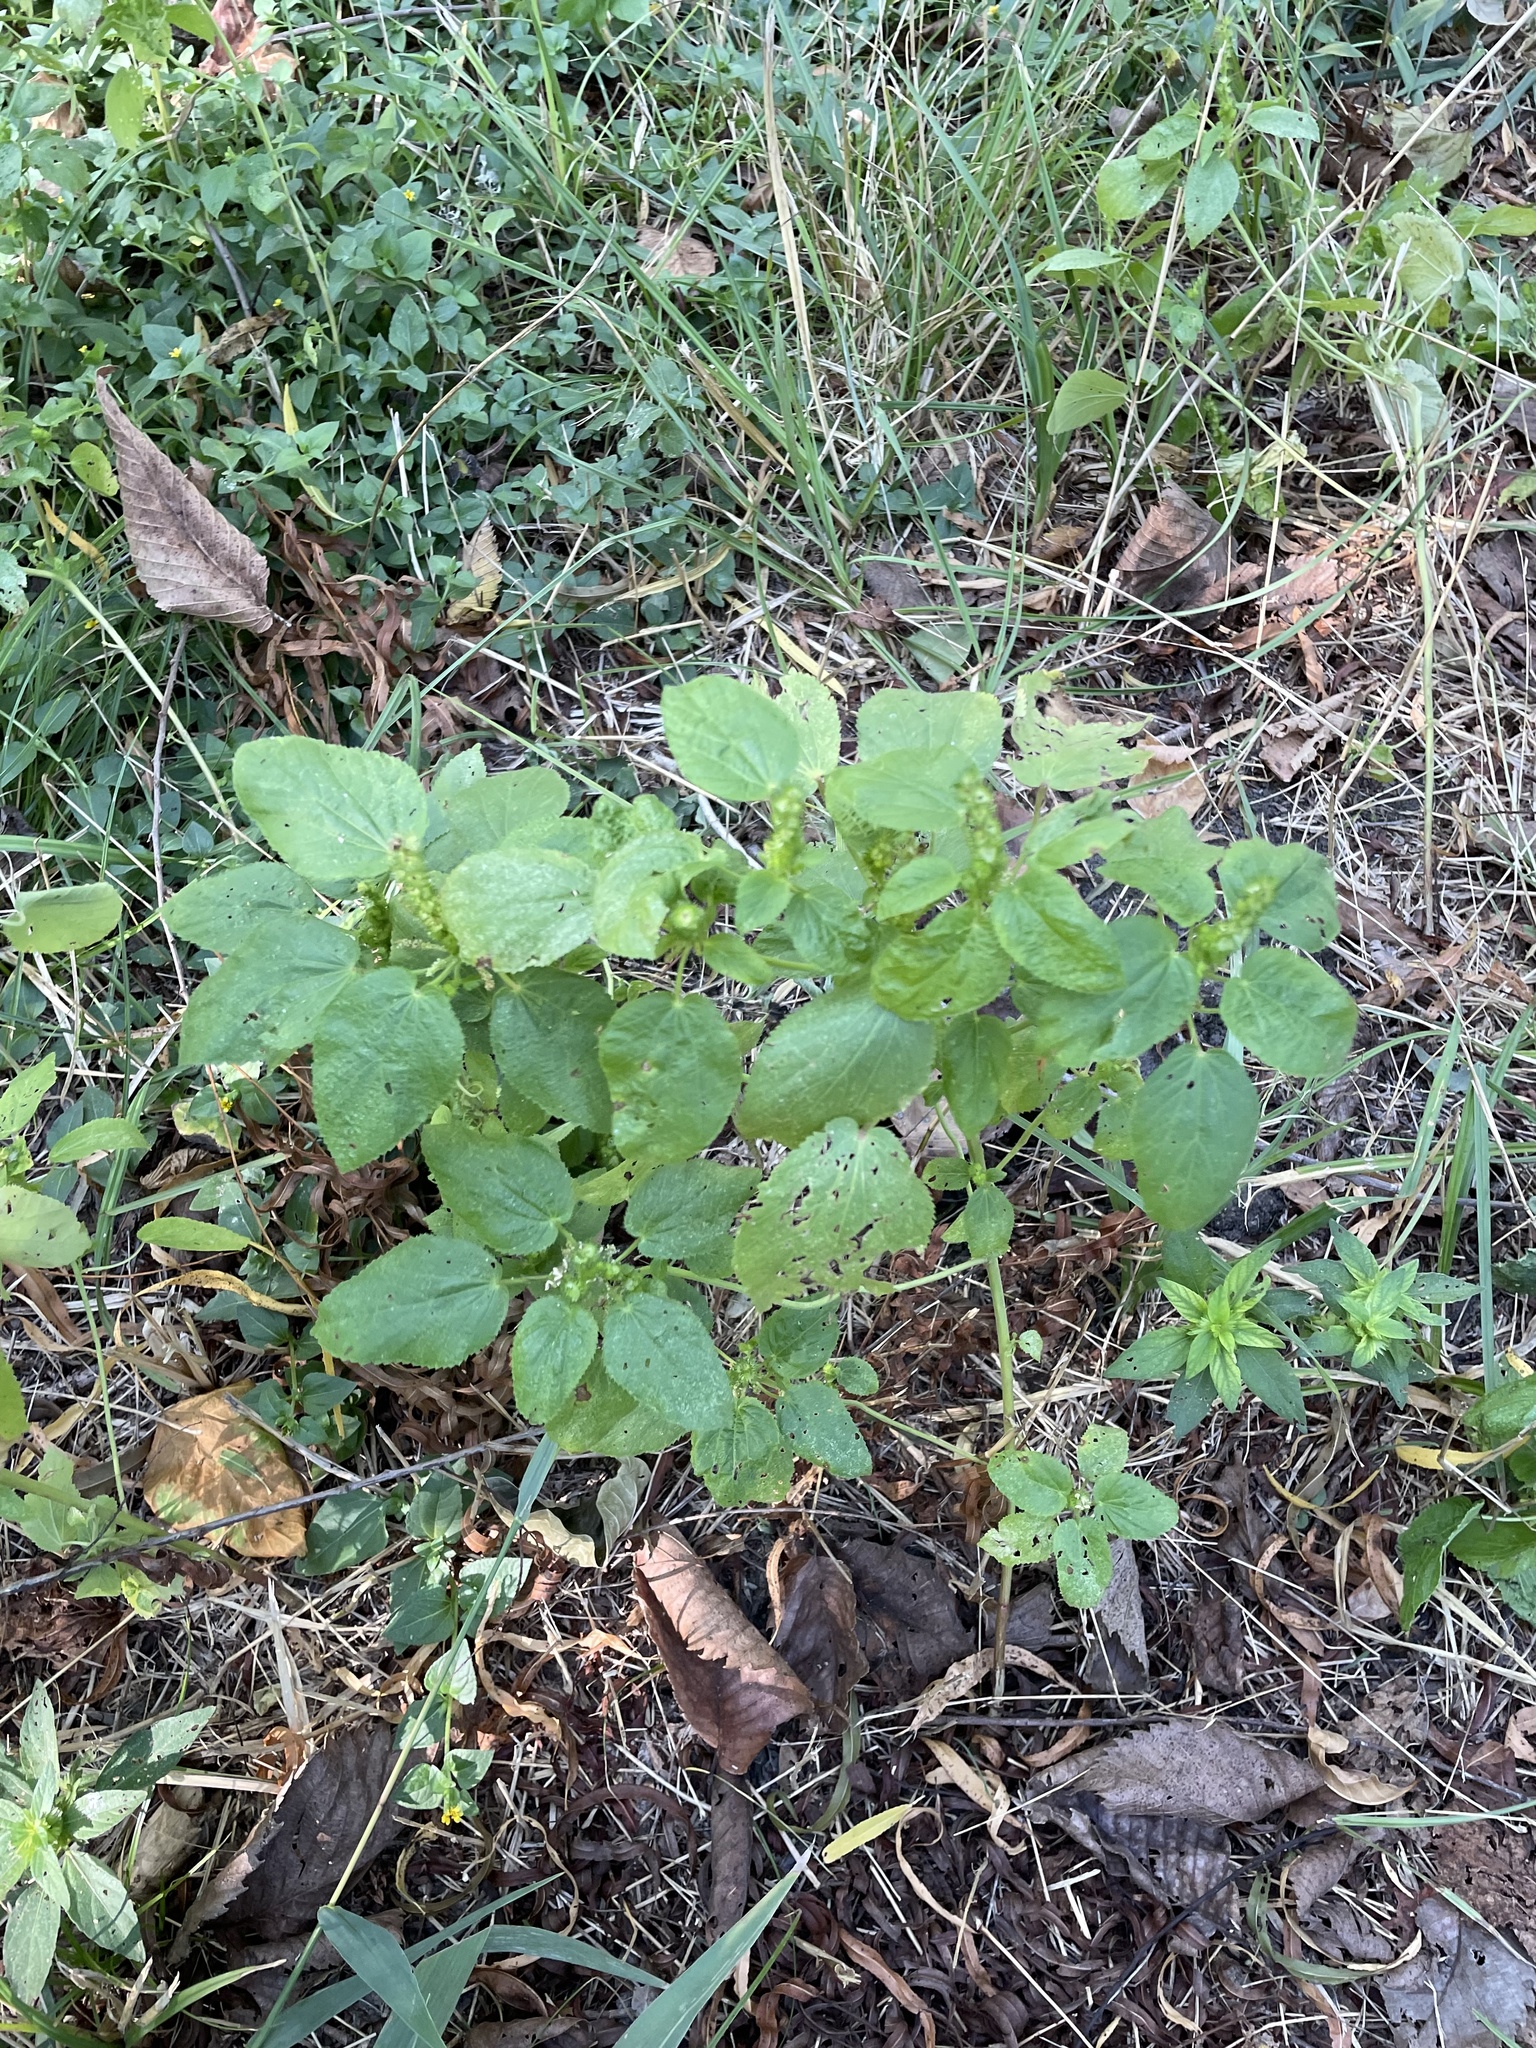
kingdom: Plantae
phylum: Tracheophyta
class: Magnoliopsida
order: Malpighiales
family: Euphorbiaceae
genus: Acalypha
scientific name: Acalypha ostryifolia
